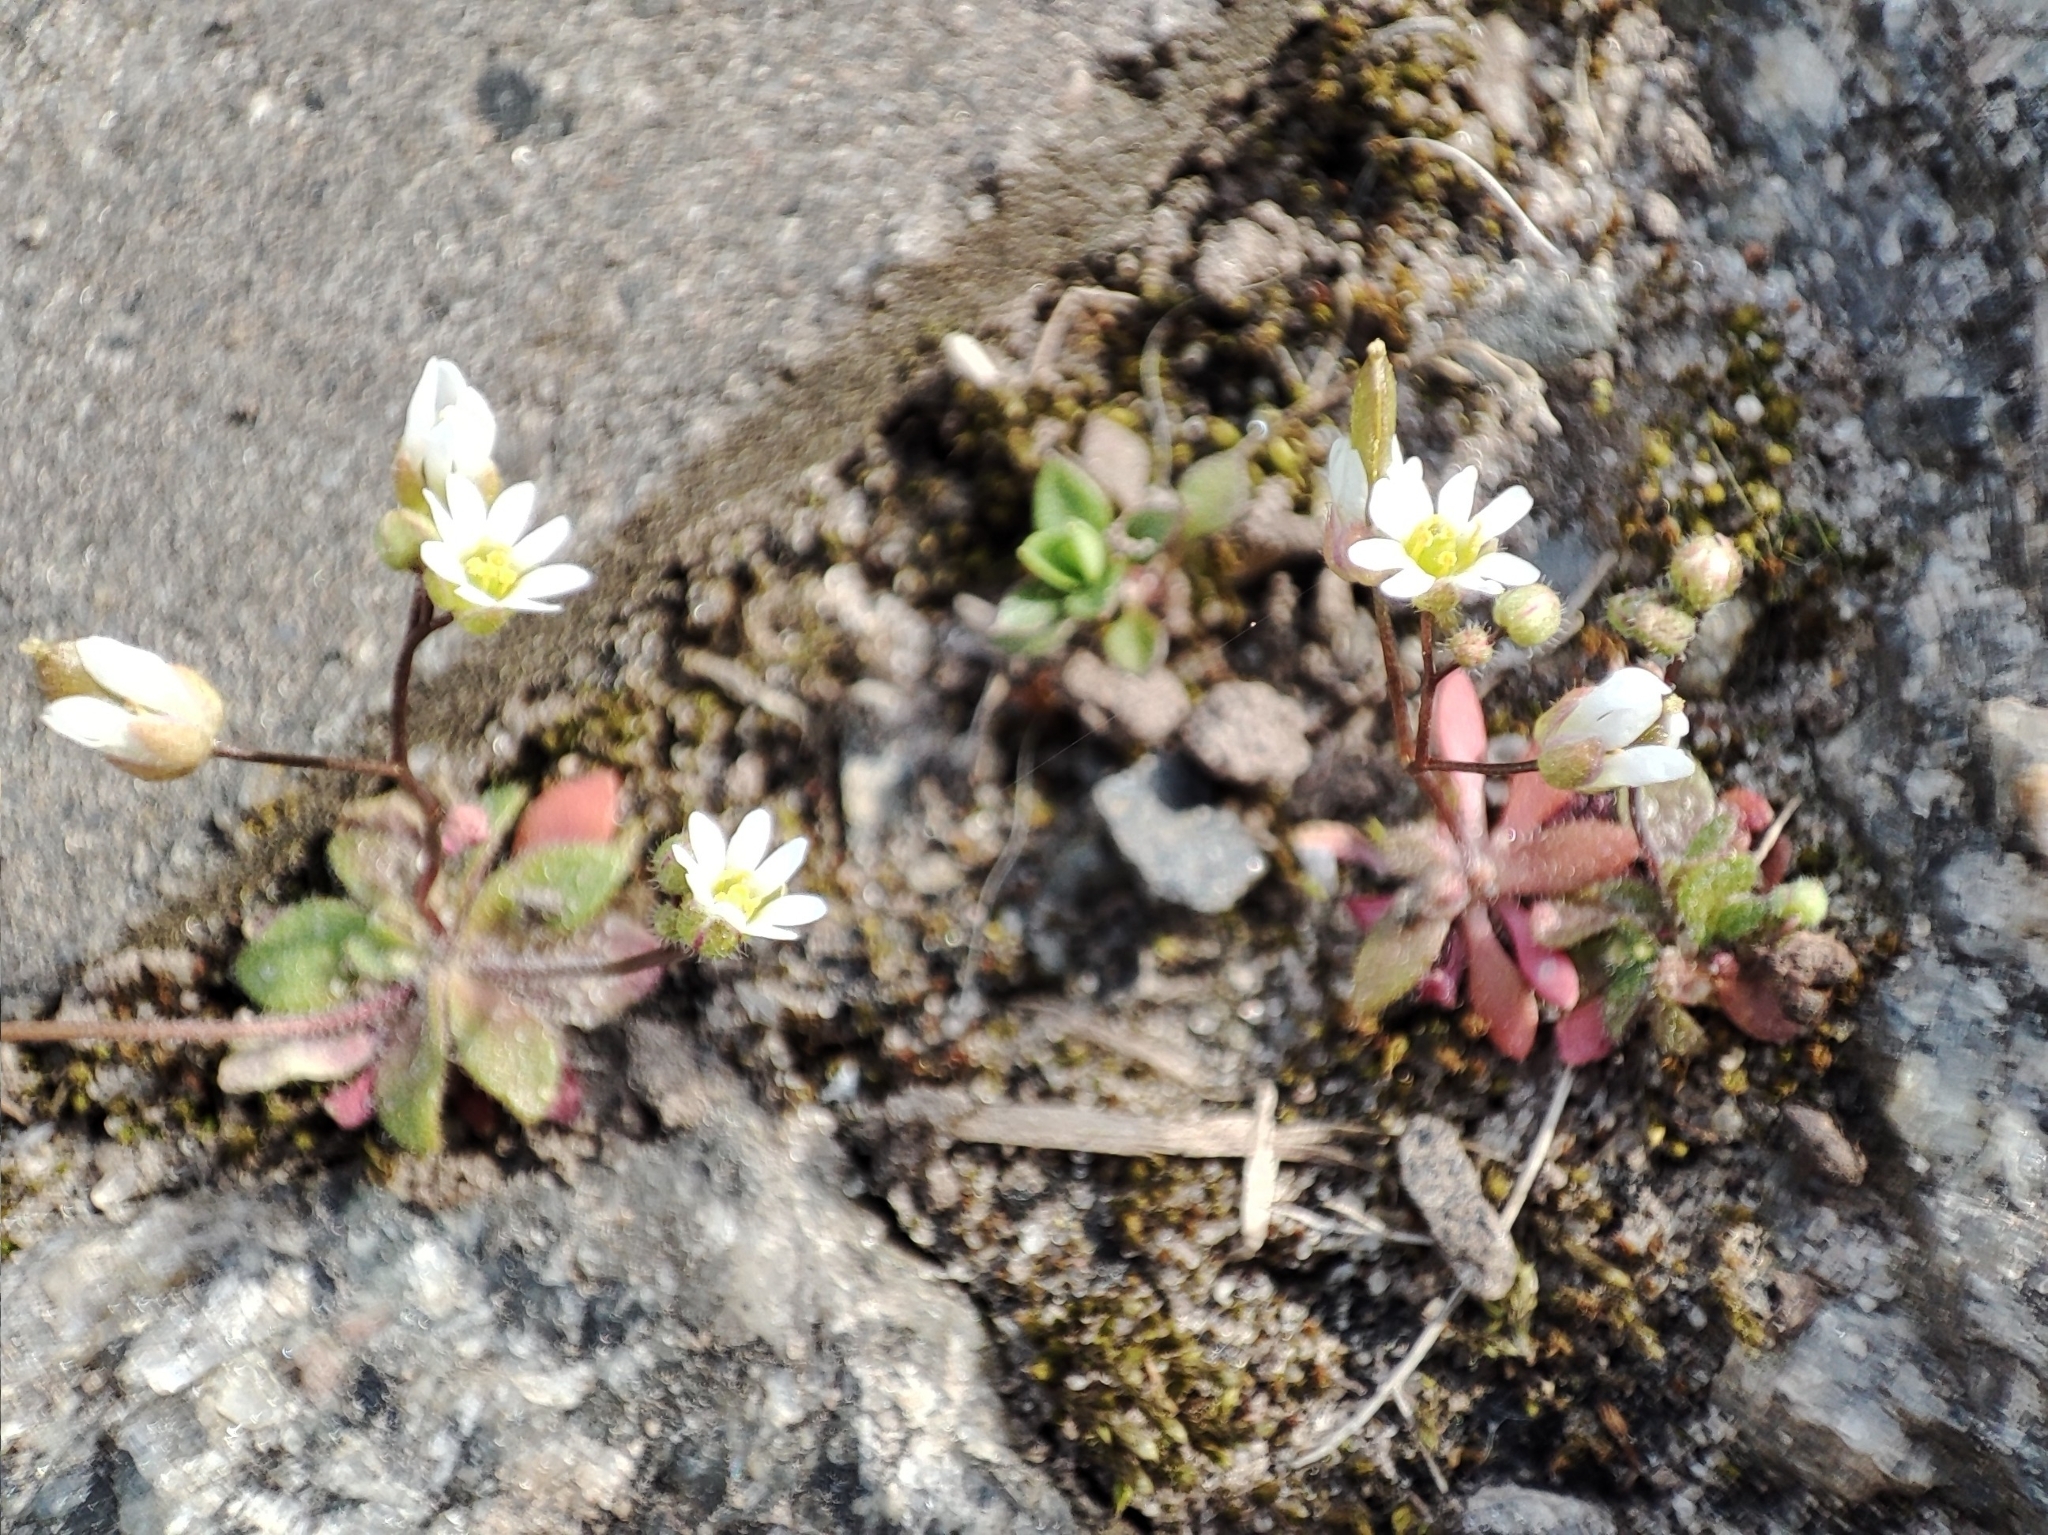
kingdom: Plantae
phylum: Tracheophyta
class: Magnoliopsida
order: Brassicales
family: Brassicaceae
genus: Draba
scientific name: Draba verna
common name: Spring draba
